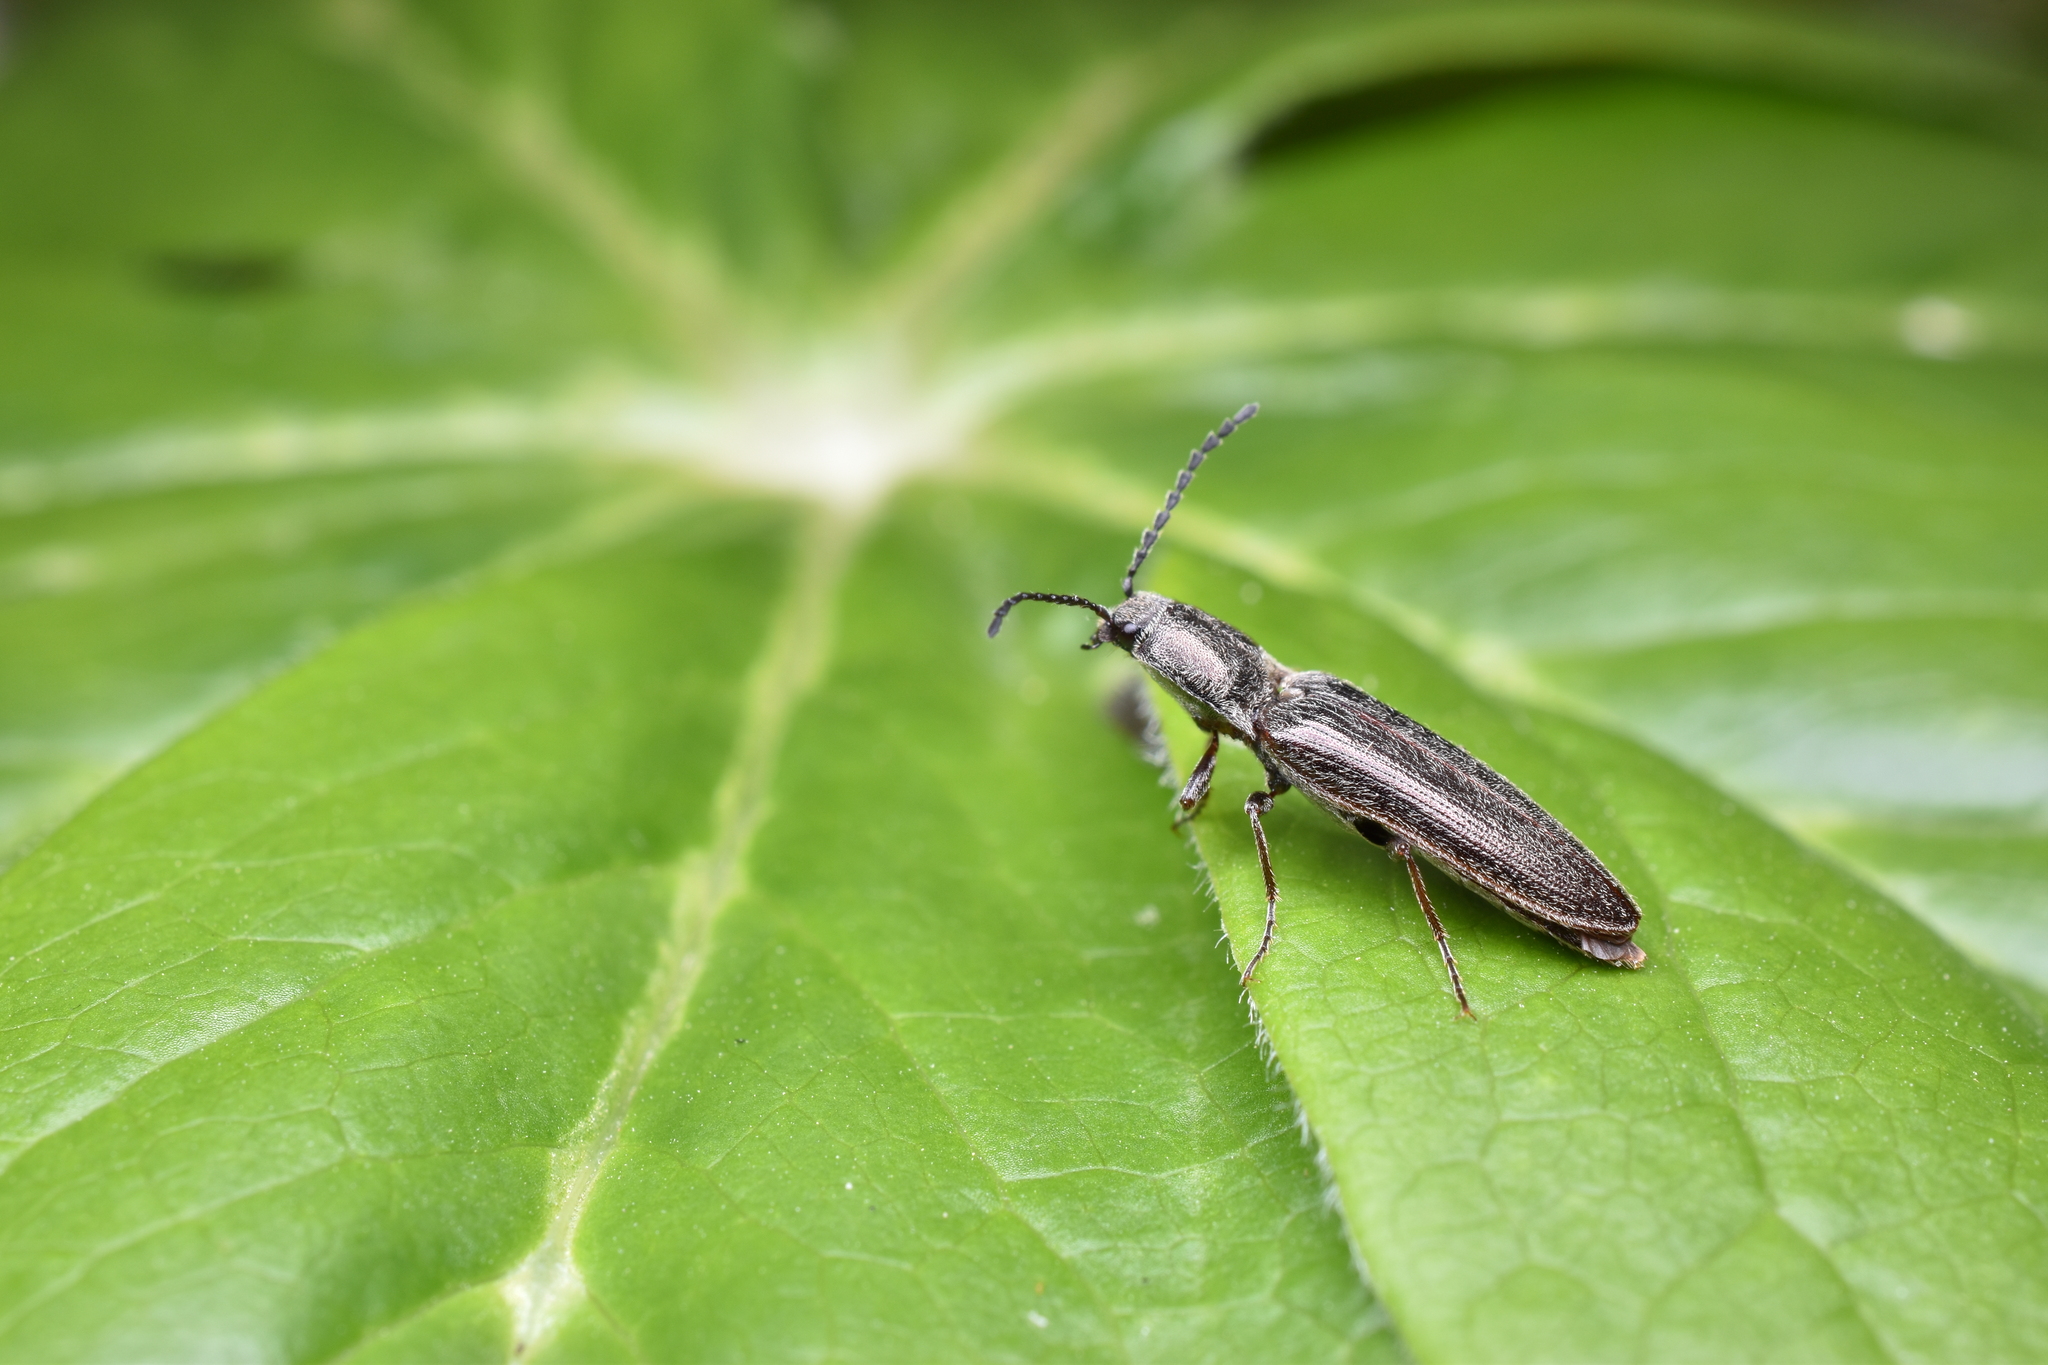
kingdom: Animalia
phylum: Arthropoda
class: Insecta
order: Coleoptera
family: Elateridae
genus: Sylvanelater
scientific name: Sylvanelater cylindriformis
